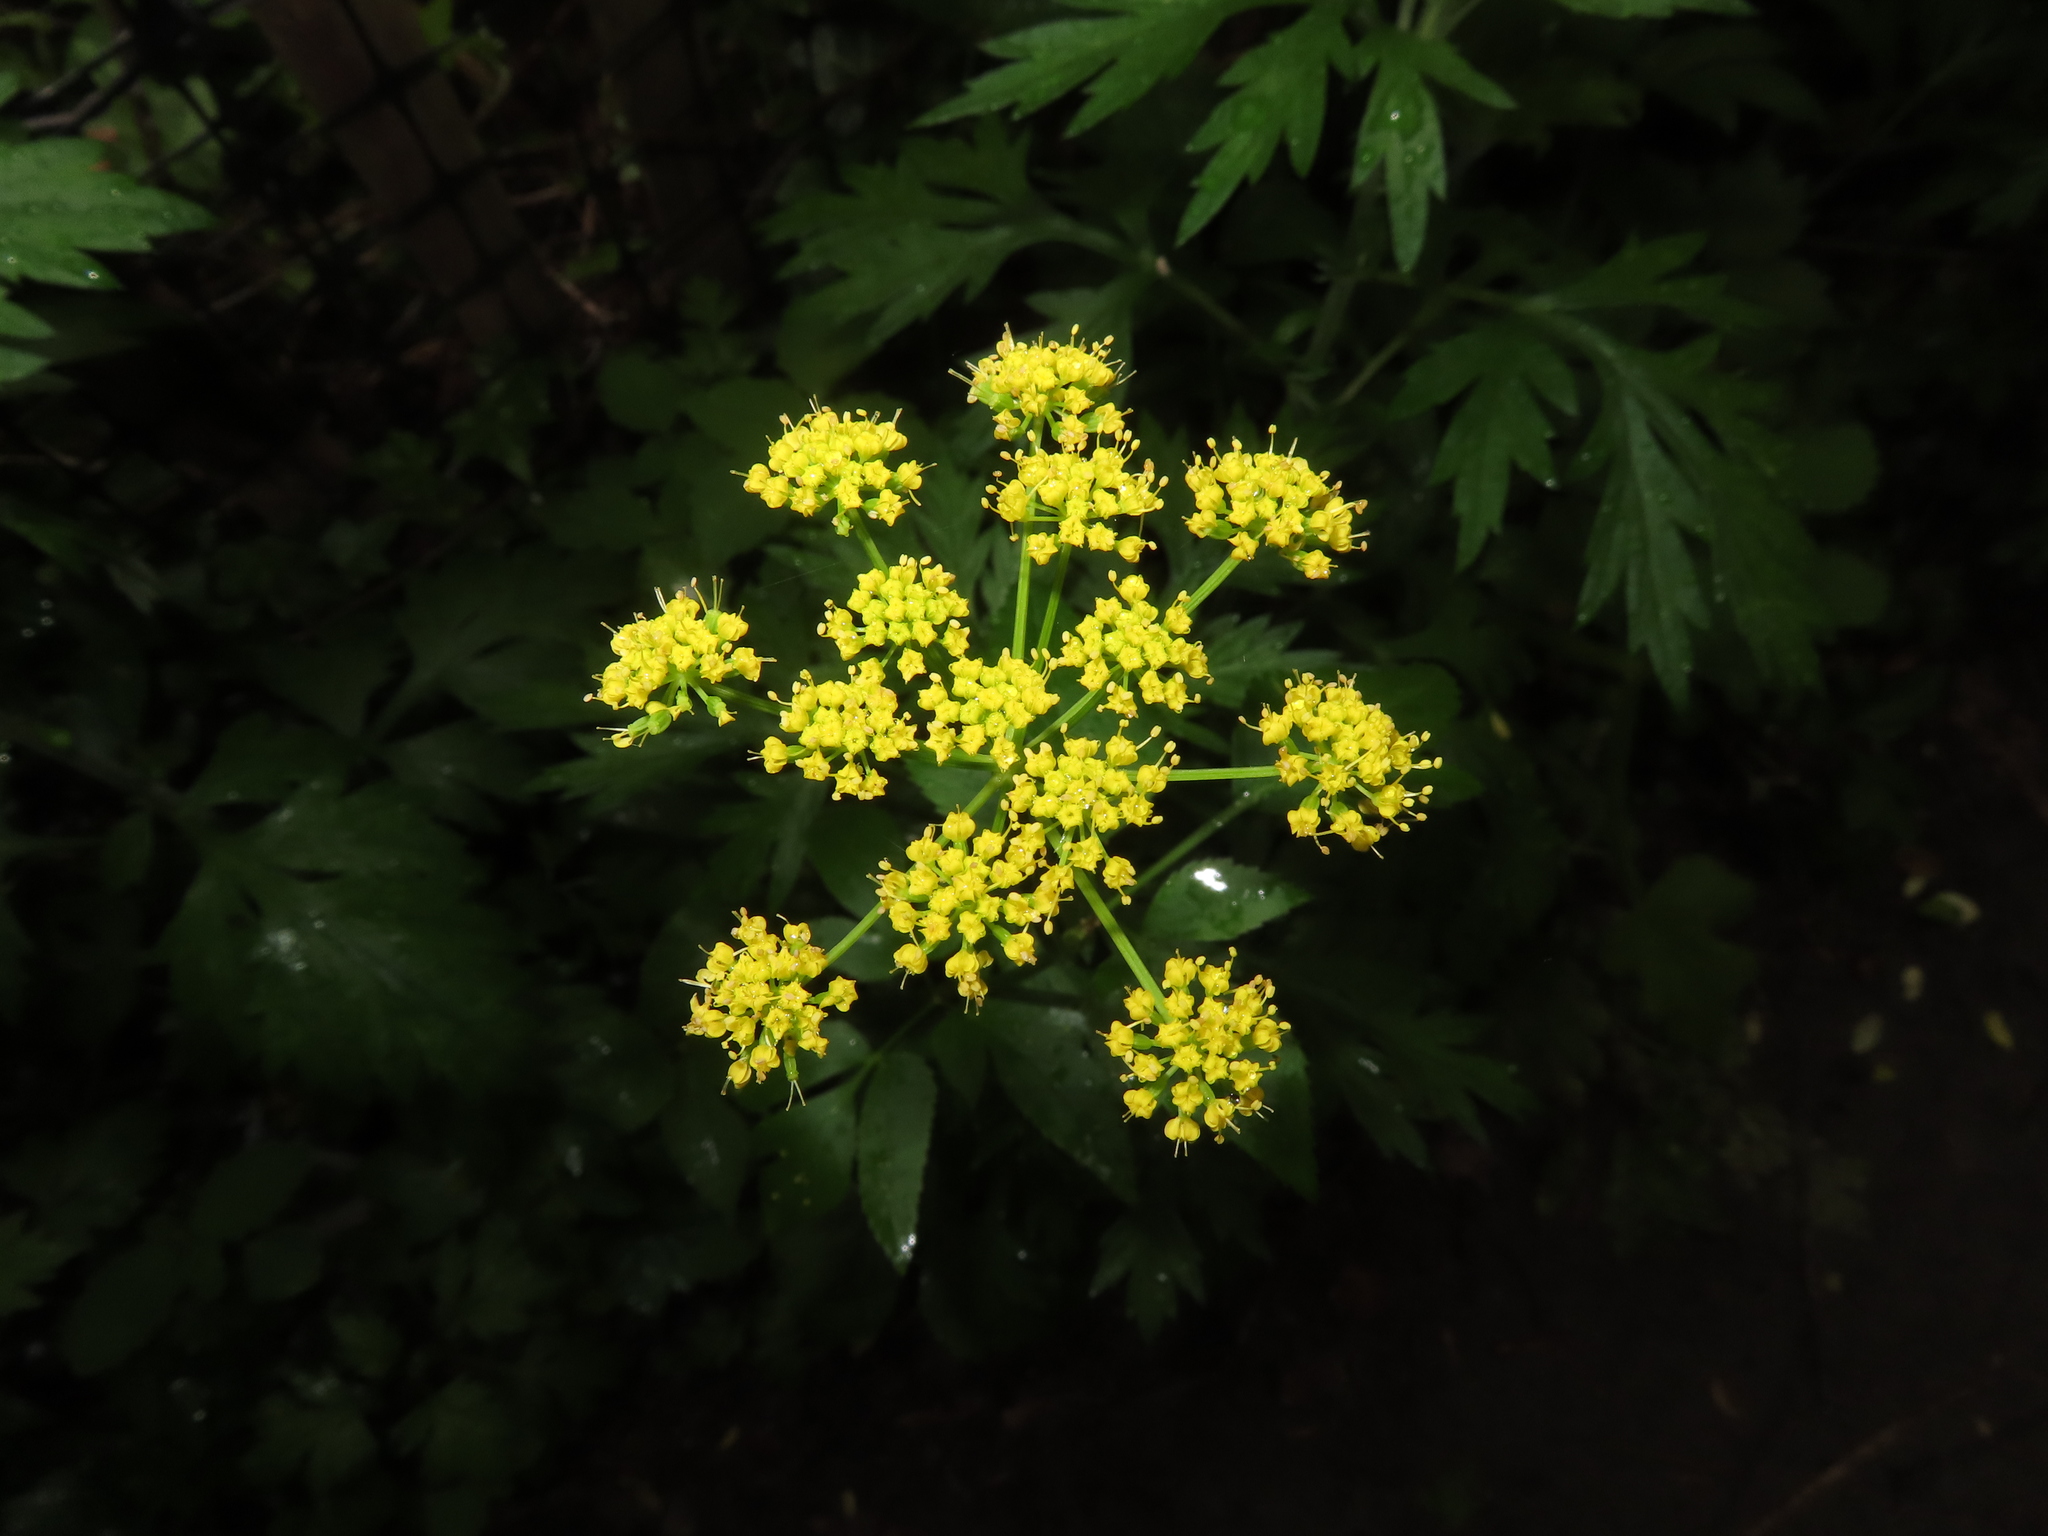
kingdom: Plantae
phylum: Tracheophyta
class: Magnoliopsida
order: Apiales
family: Apiaceae
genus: Zizia
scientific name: Zizia aurea
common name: Golden alexanders
